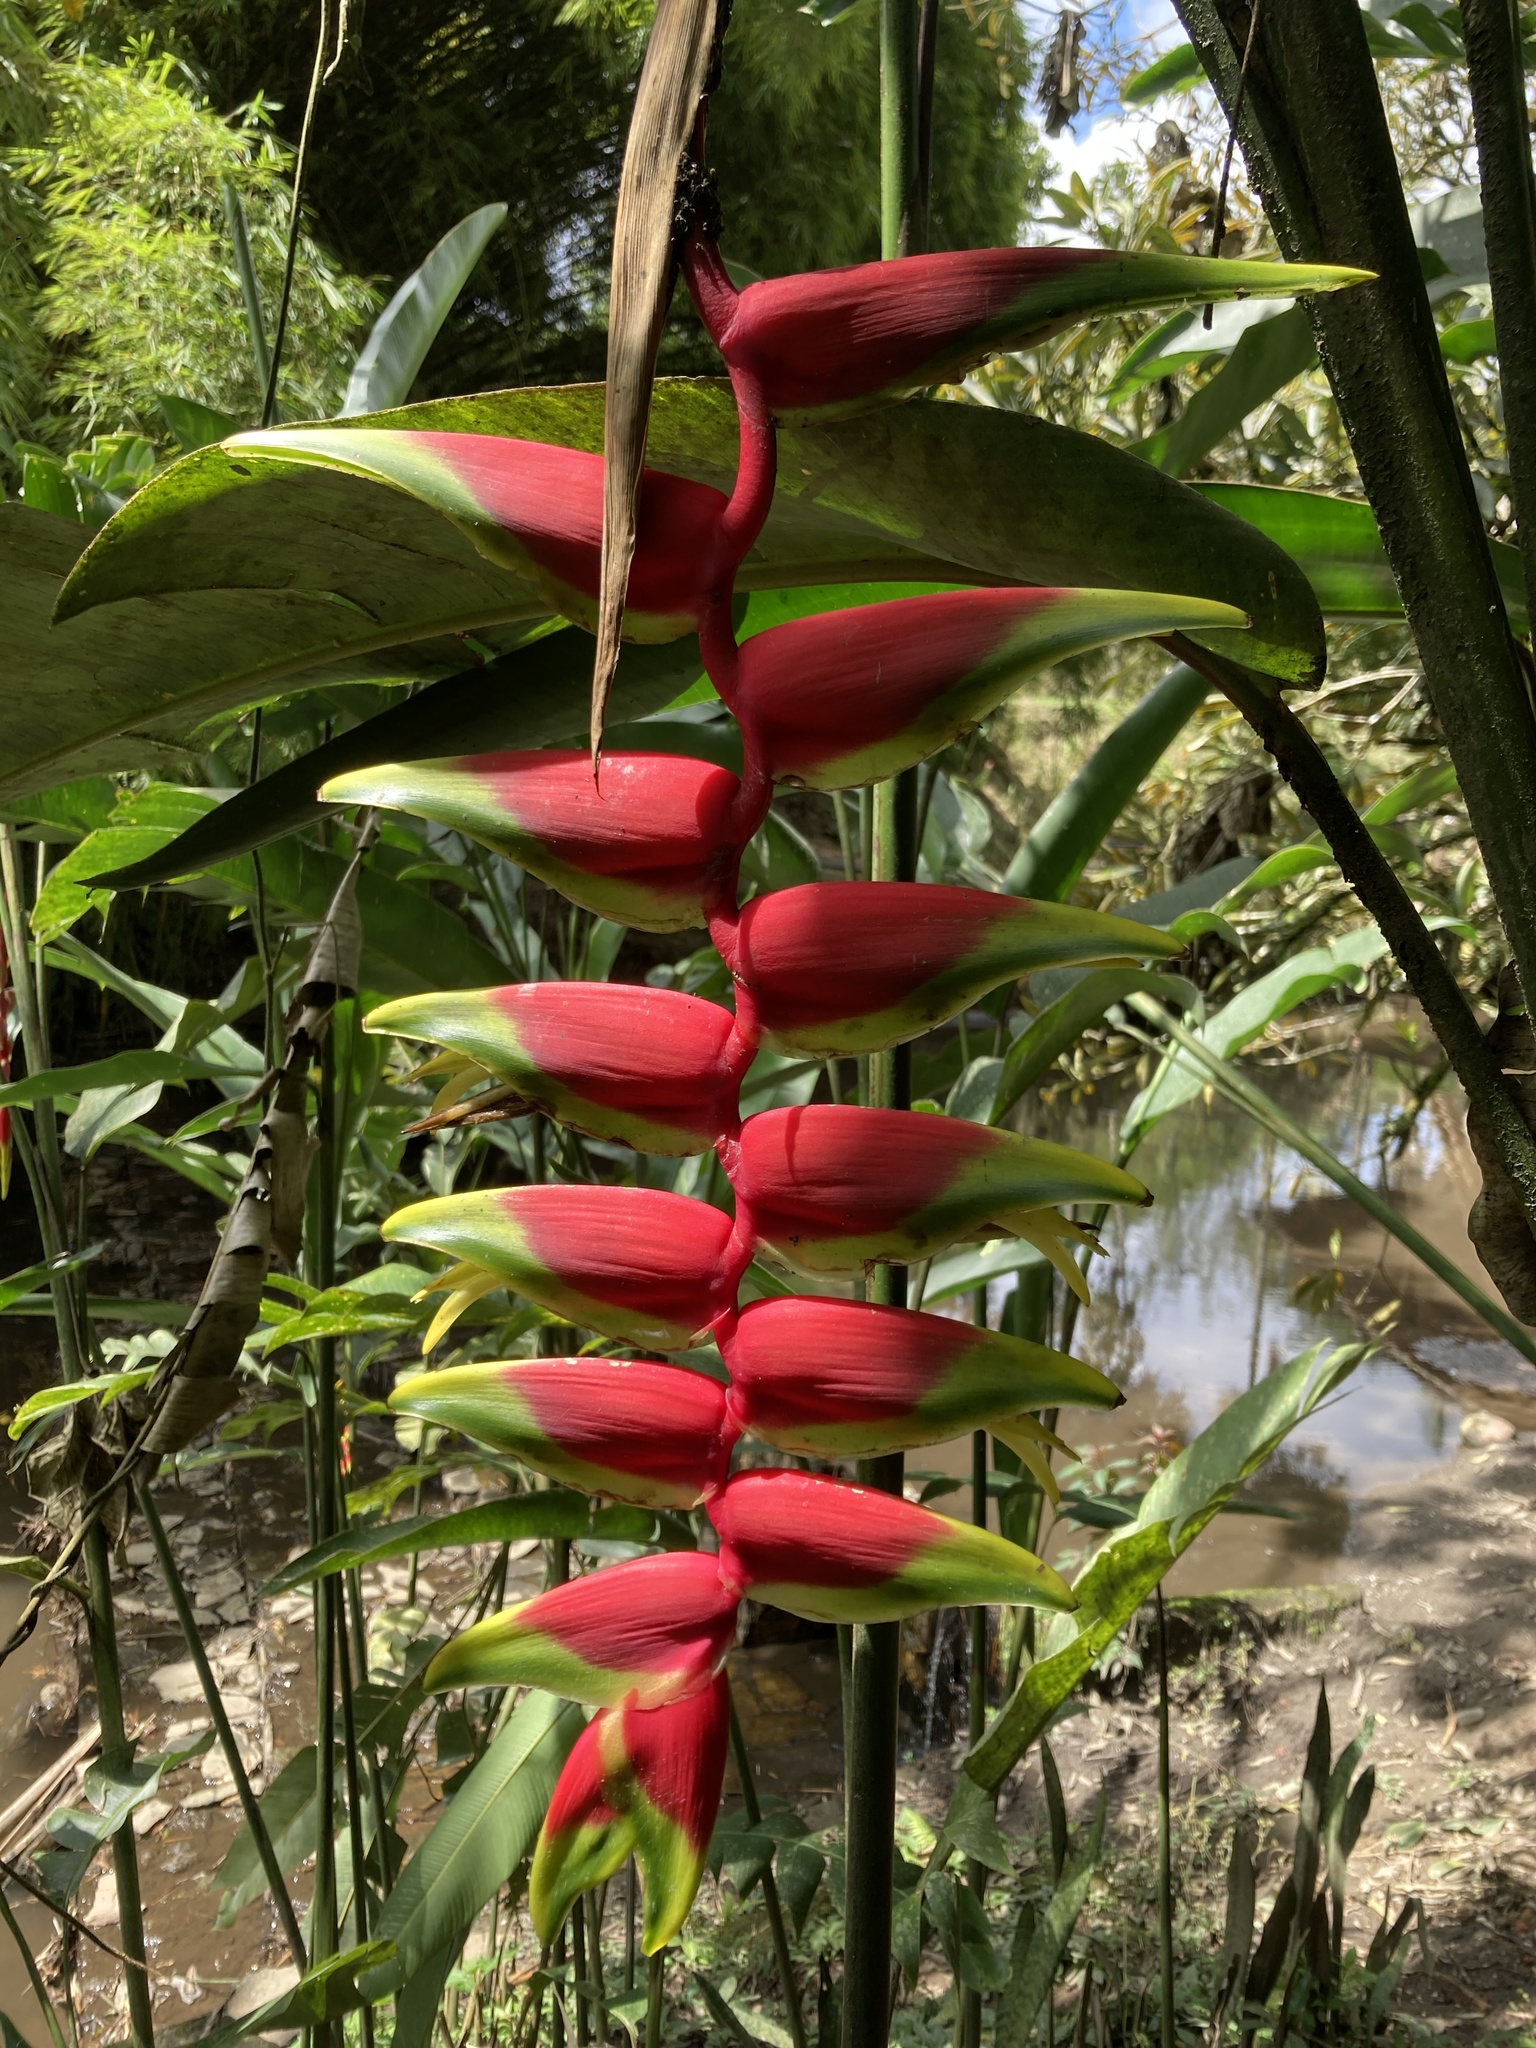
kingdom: Plantae
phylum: Tracheophyta
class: Liliopsida
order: Zingiberales
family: Heliconiaceae
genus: Heliconia
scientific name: Heliconia rostrata
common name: False bird of paradise
